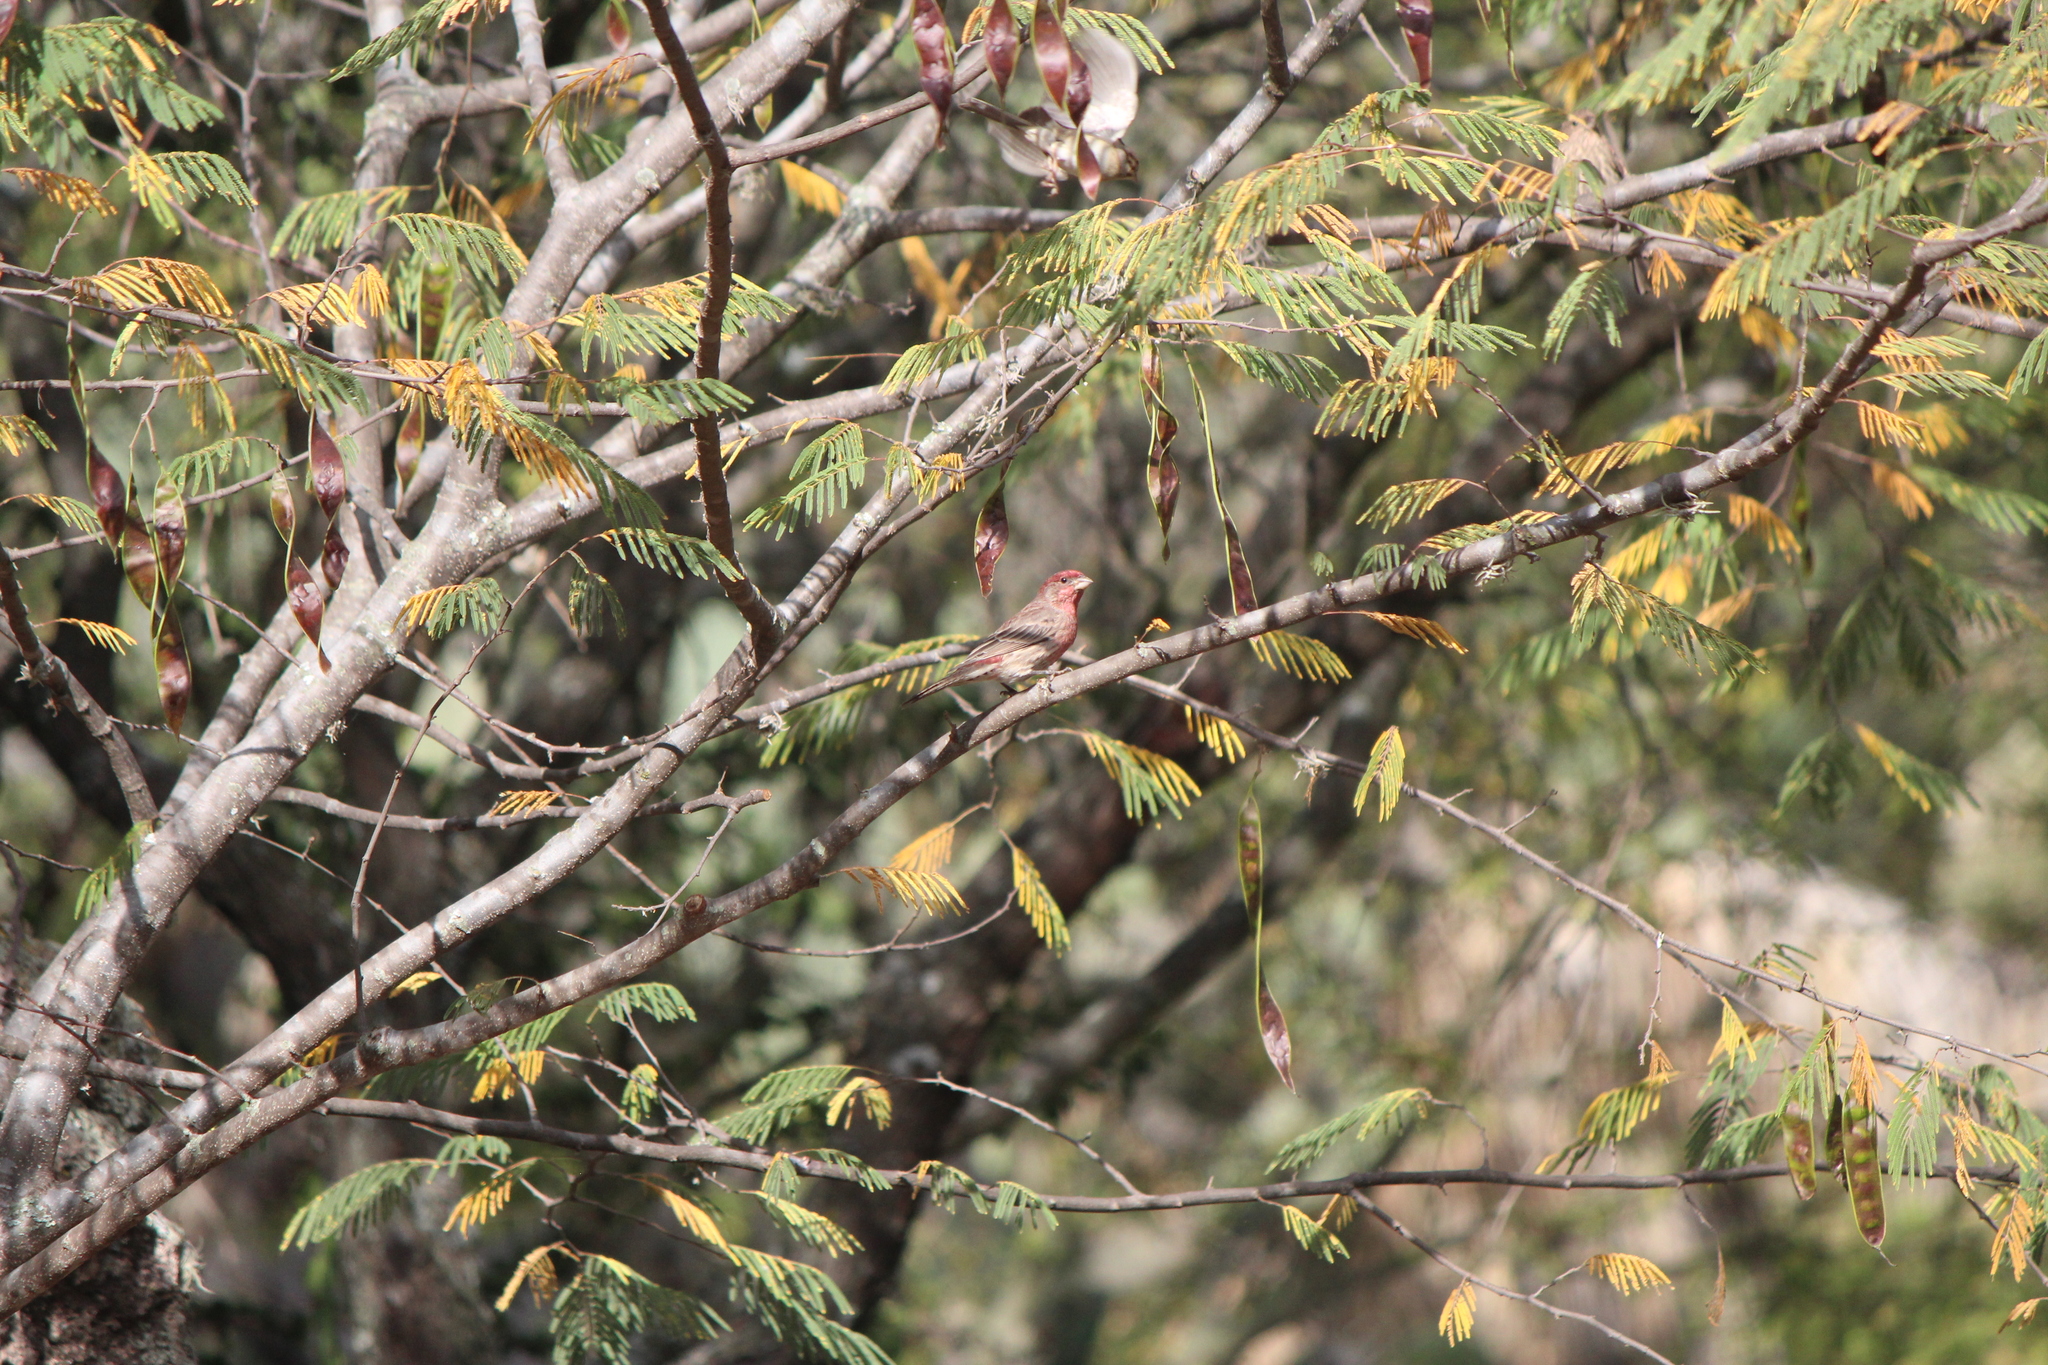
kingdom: Animalia
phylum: Chordata
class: Aves
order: Passeriformes
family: Fringillidae
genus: Haemorhous
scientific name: Haemorhous mexicanus
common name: House finch
